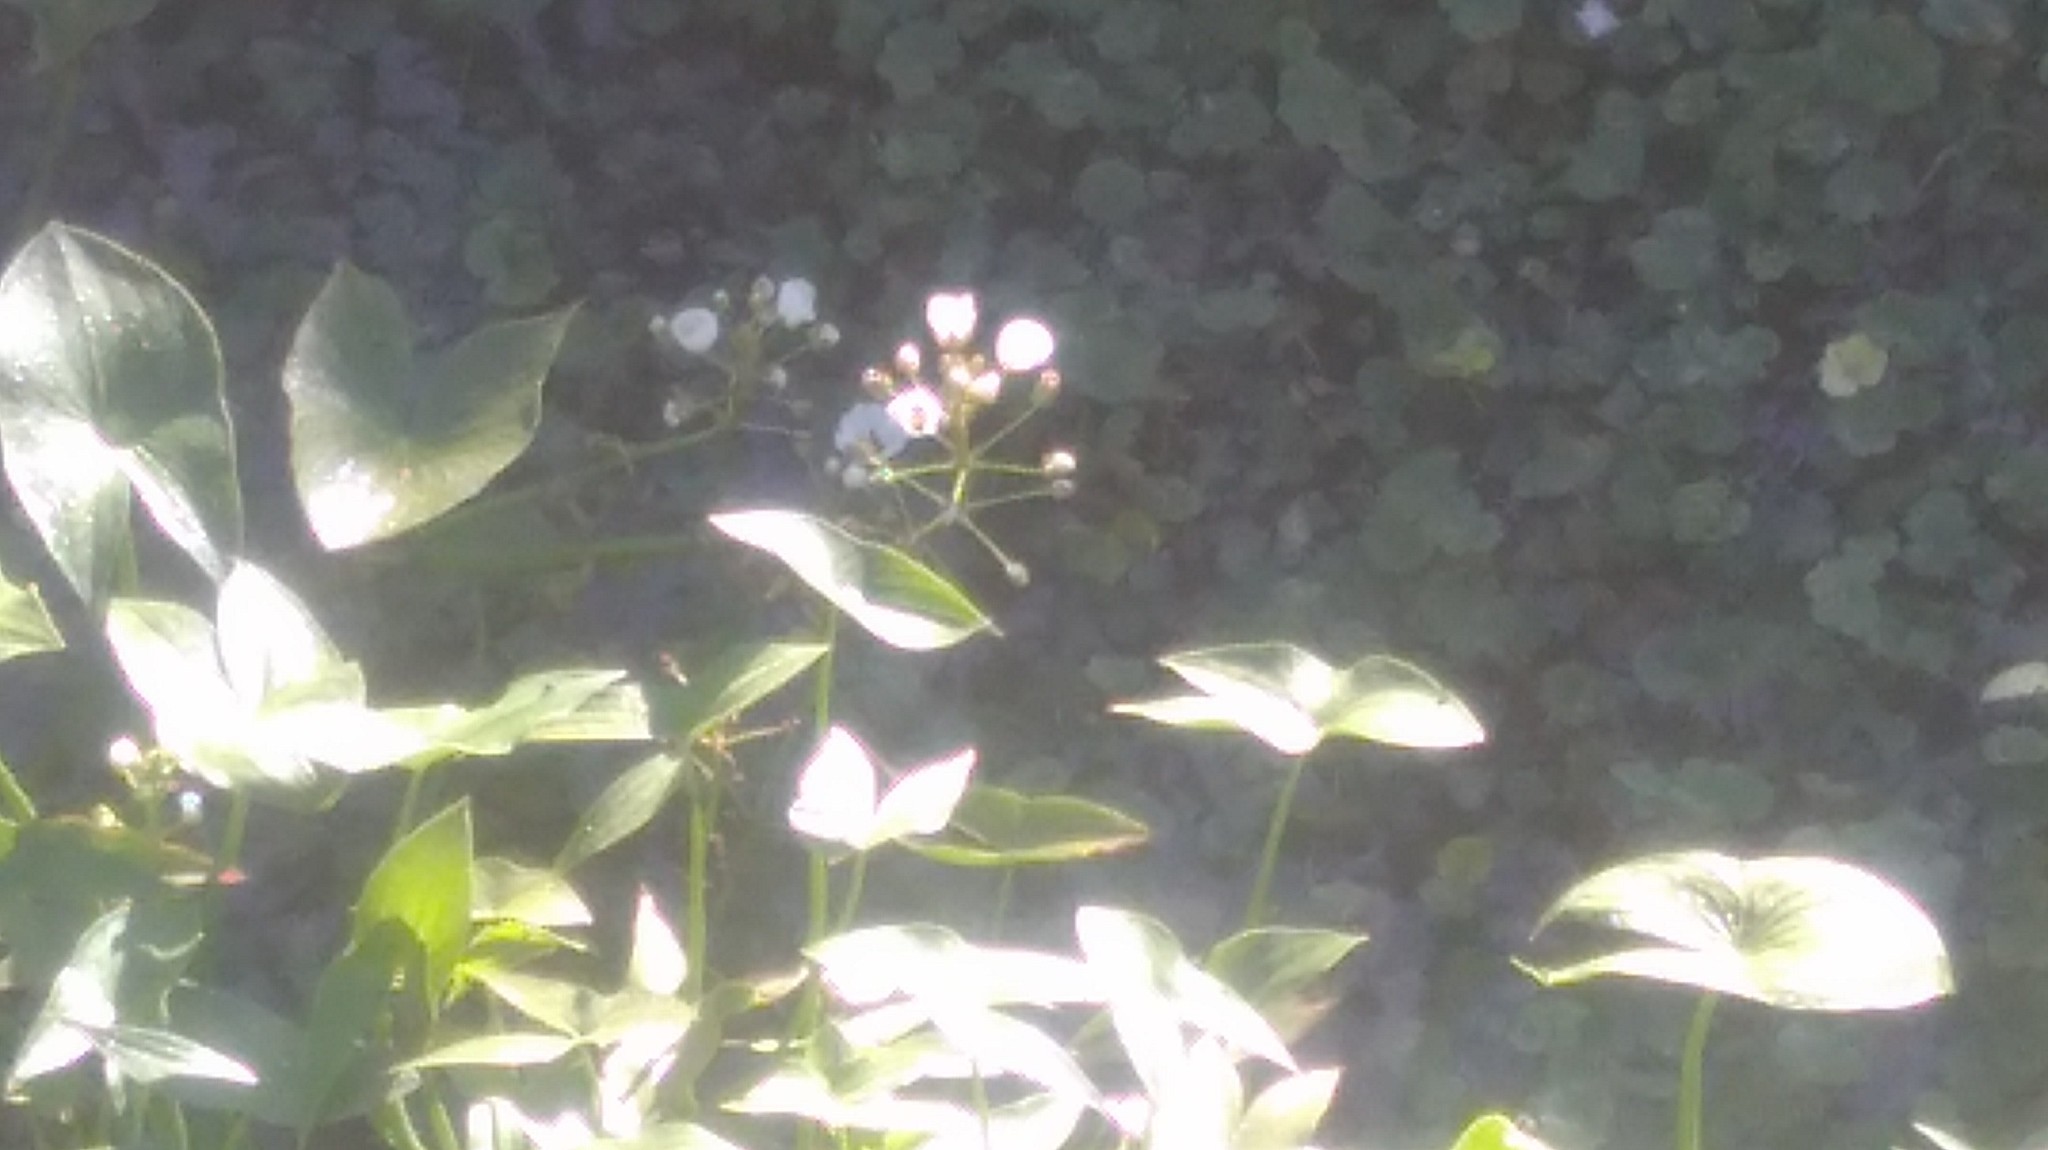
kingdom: Plantae
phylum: Tracheophyta
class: Liliopsida
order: Alismatales
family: Alismataceae
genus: Sagittaria
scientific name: Sagittaria montevidensis
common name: Giant arrowhead
